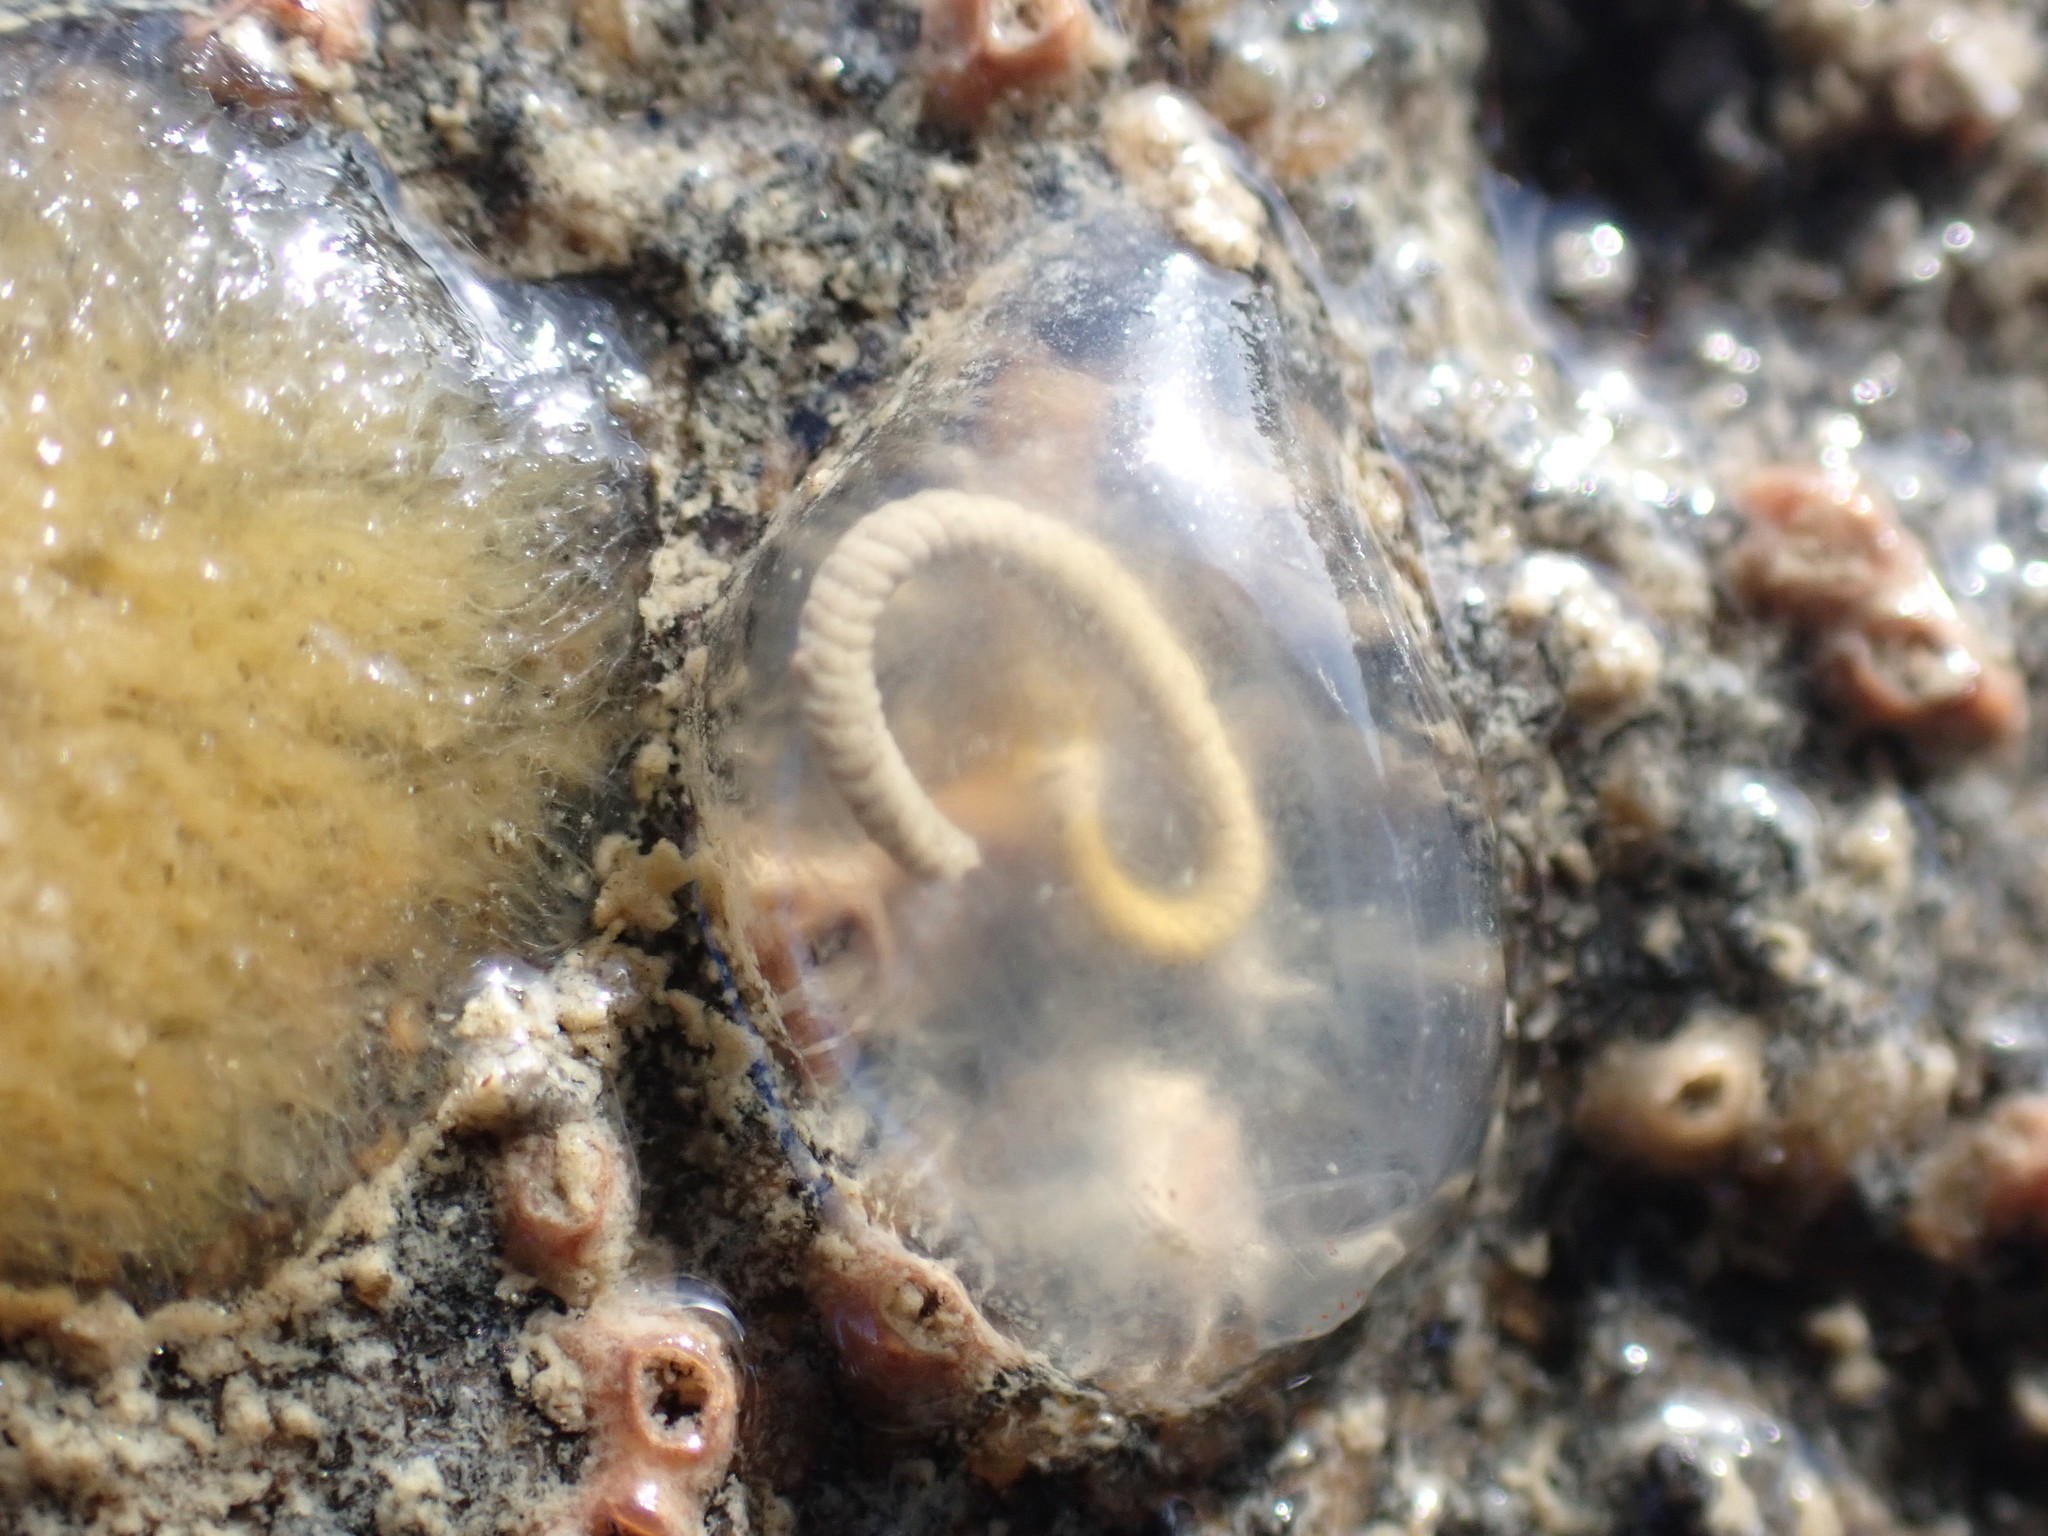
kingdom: Animalia
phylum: Chordata
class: Ascidiacea
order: Phlebobranchia
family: Agneziidae
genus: Agnezia
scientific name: Agnezia glaciata
